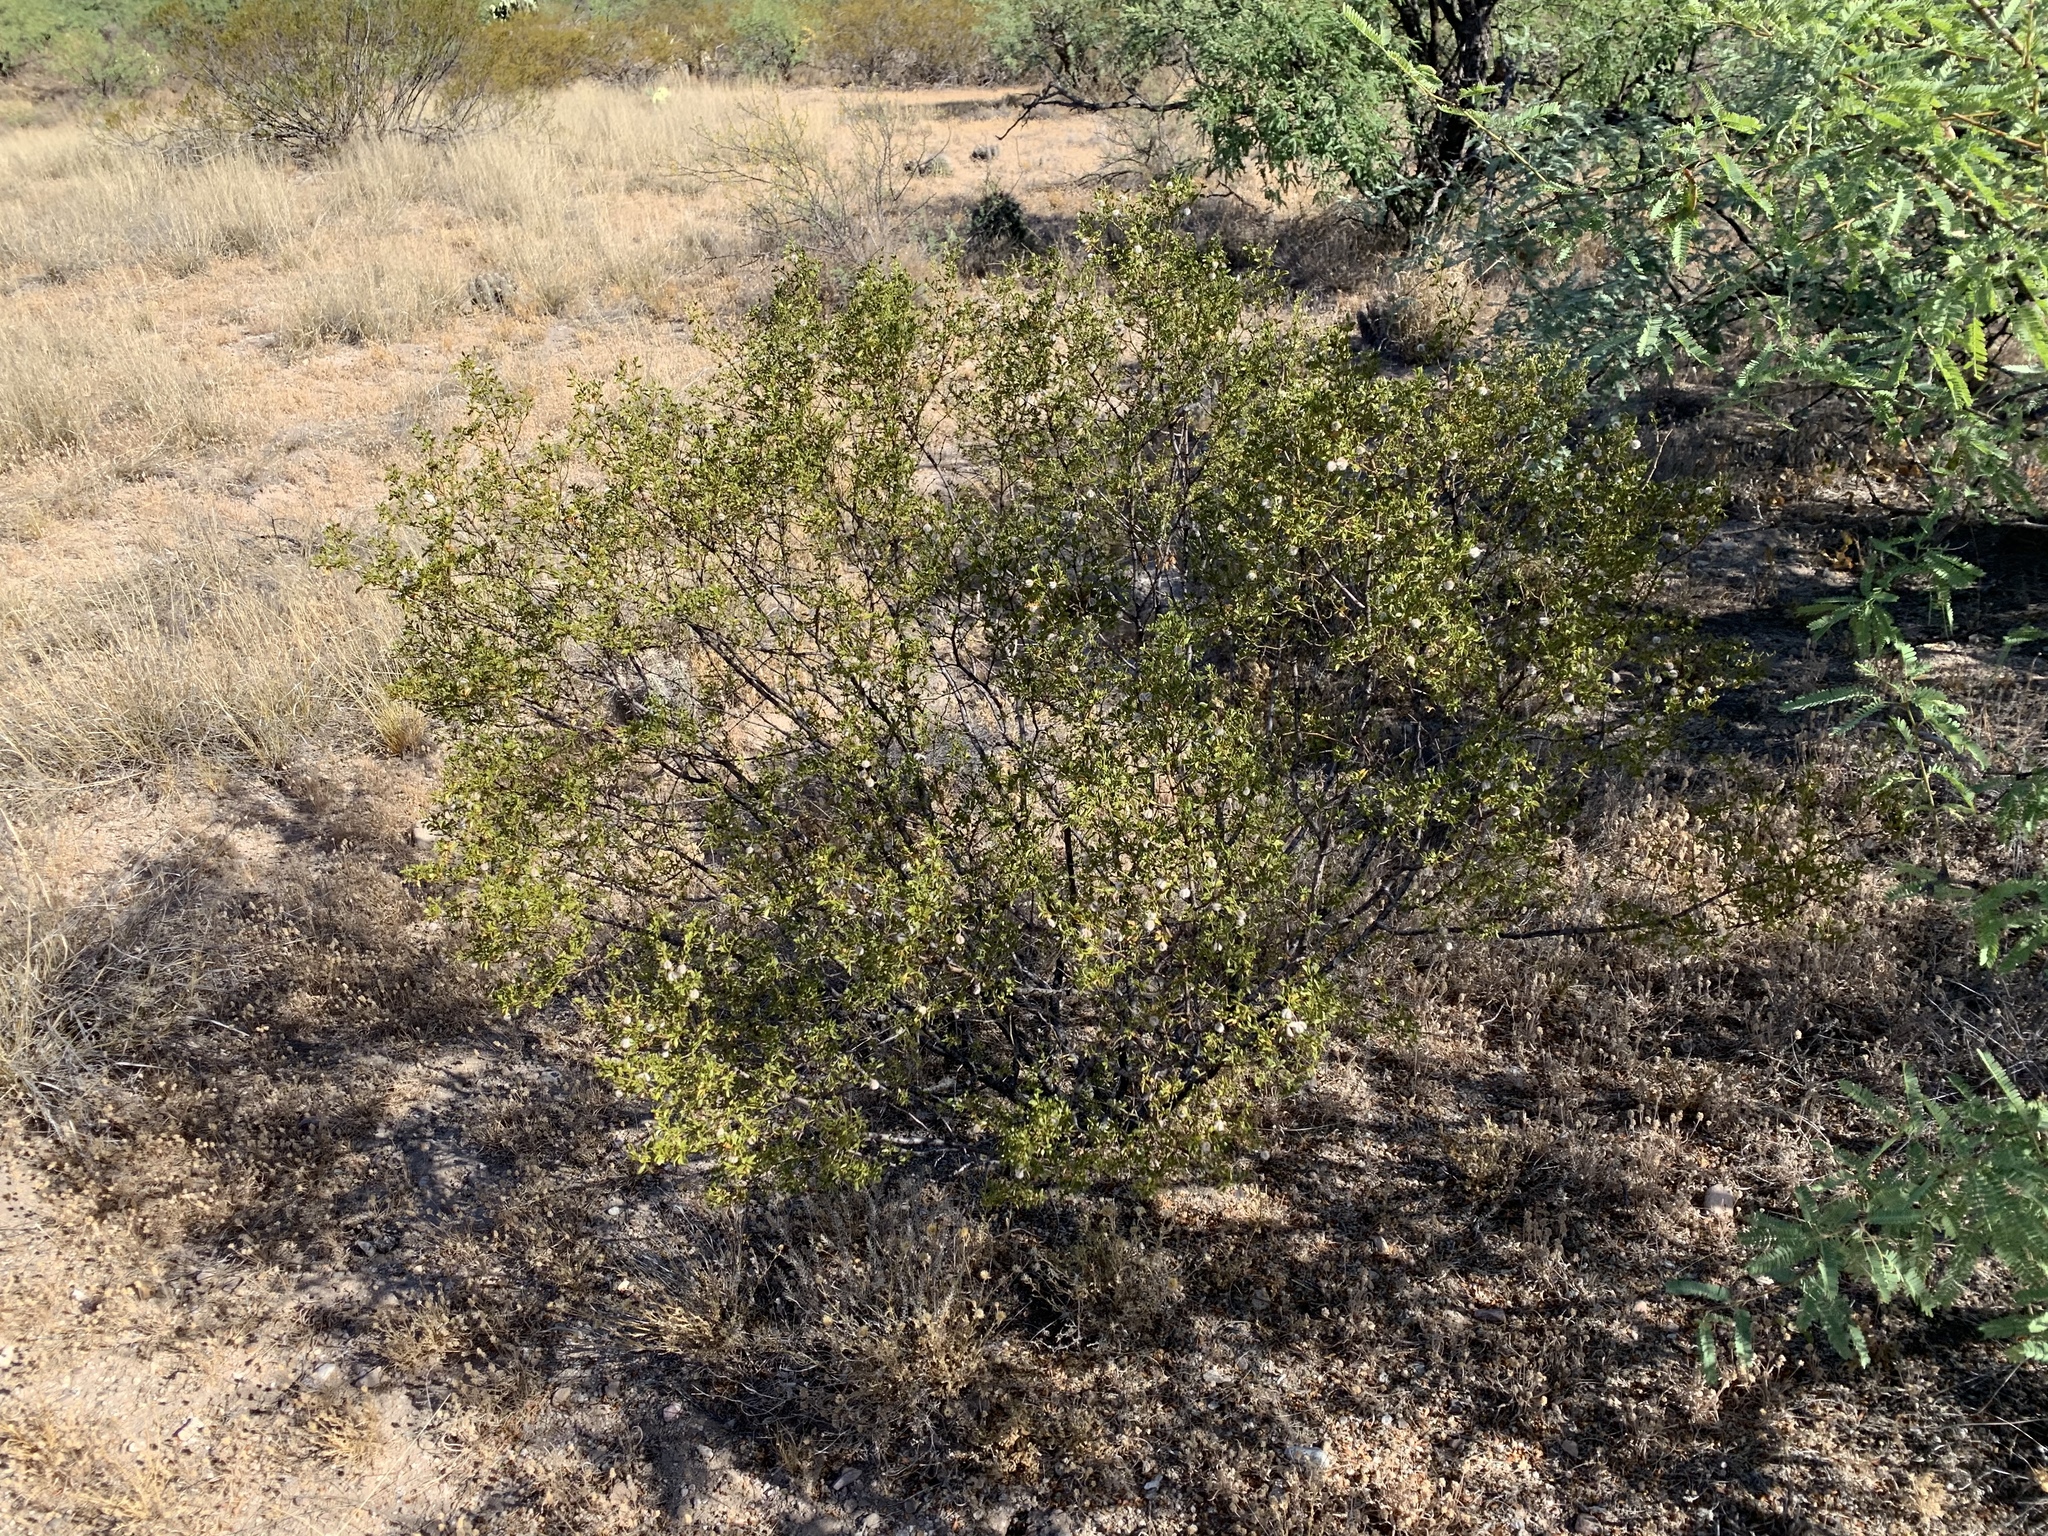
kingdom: Plantae
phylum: Tracheophyta
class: Magnoliopsida
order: Zygophyllales
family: Zygophyllaceae
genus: Larrea
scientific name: Larrea tridentata
